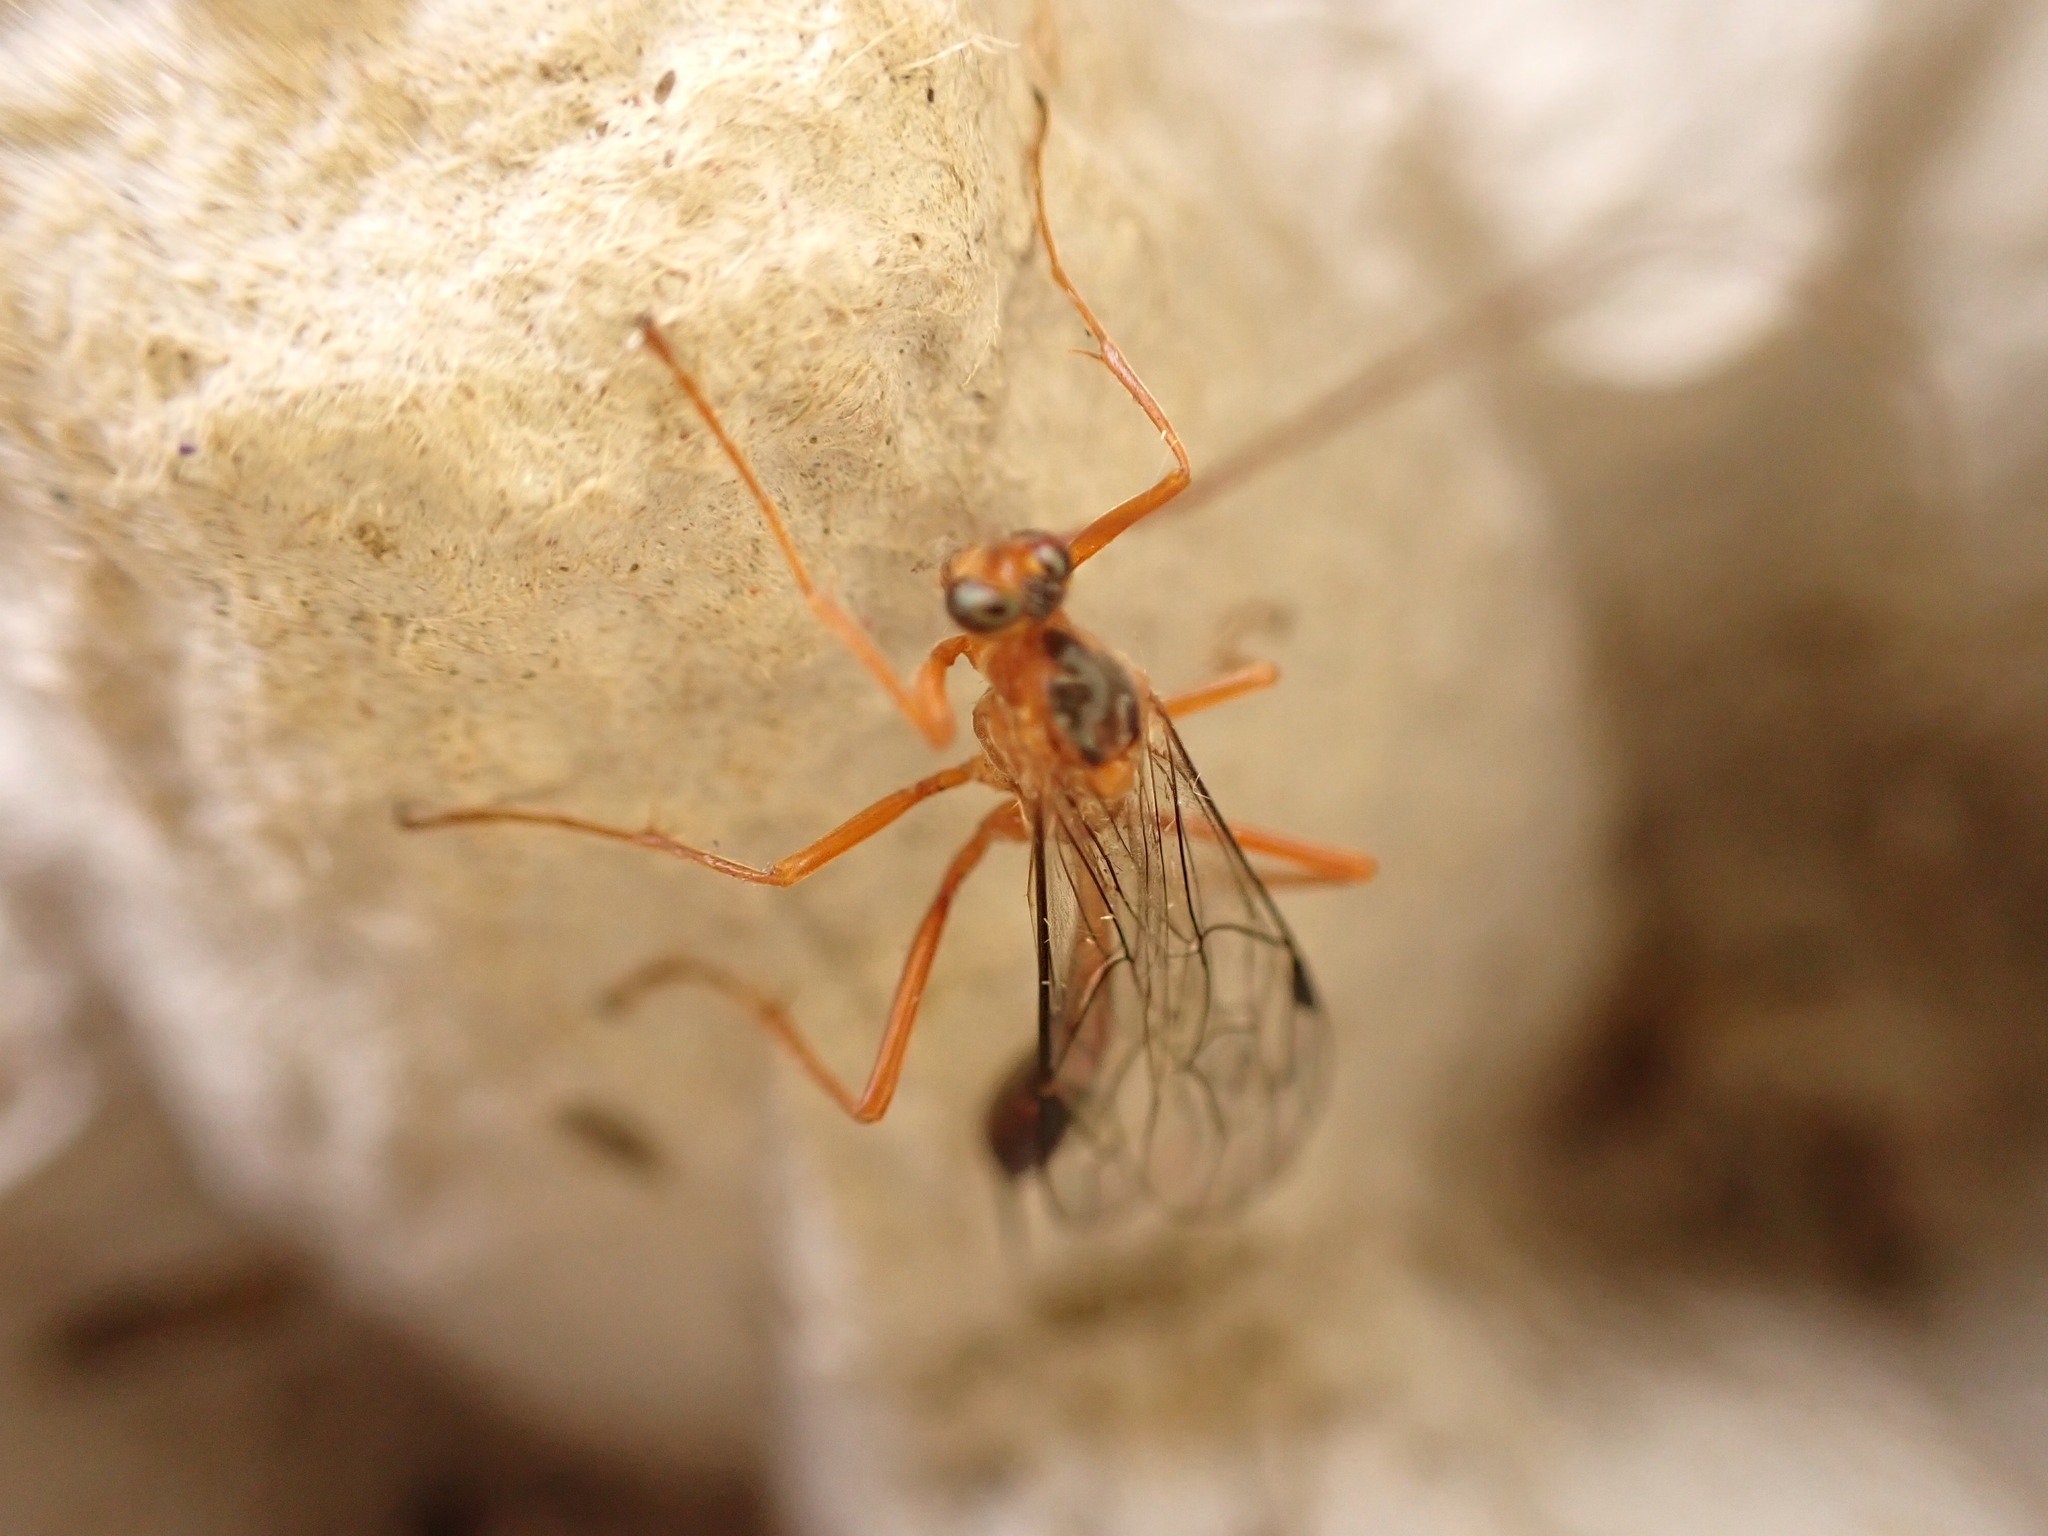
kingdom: Animalia
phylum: Arthropoda
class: Insecta
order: Hymenoptera
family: Ichneumonidae
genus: Netelia
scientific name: Netelia ephippiata
